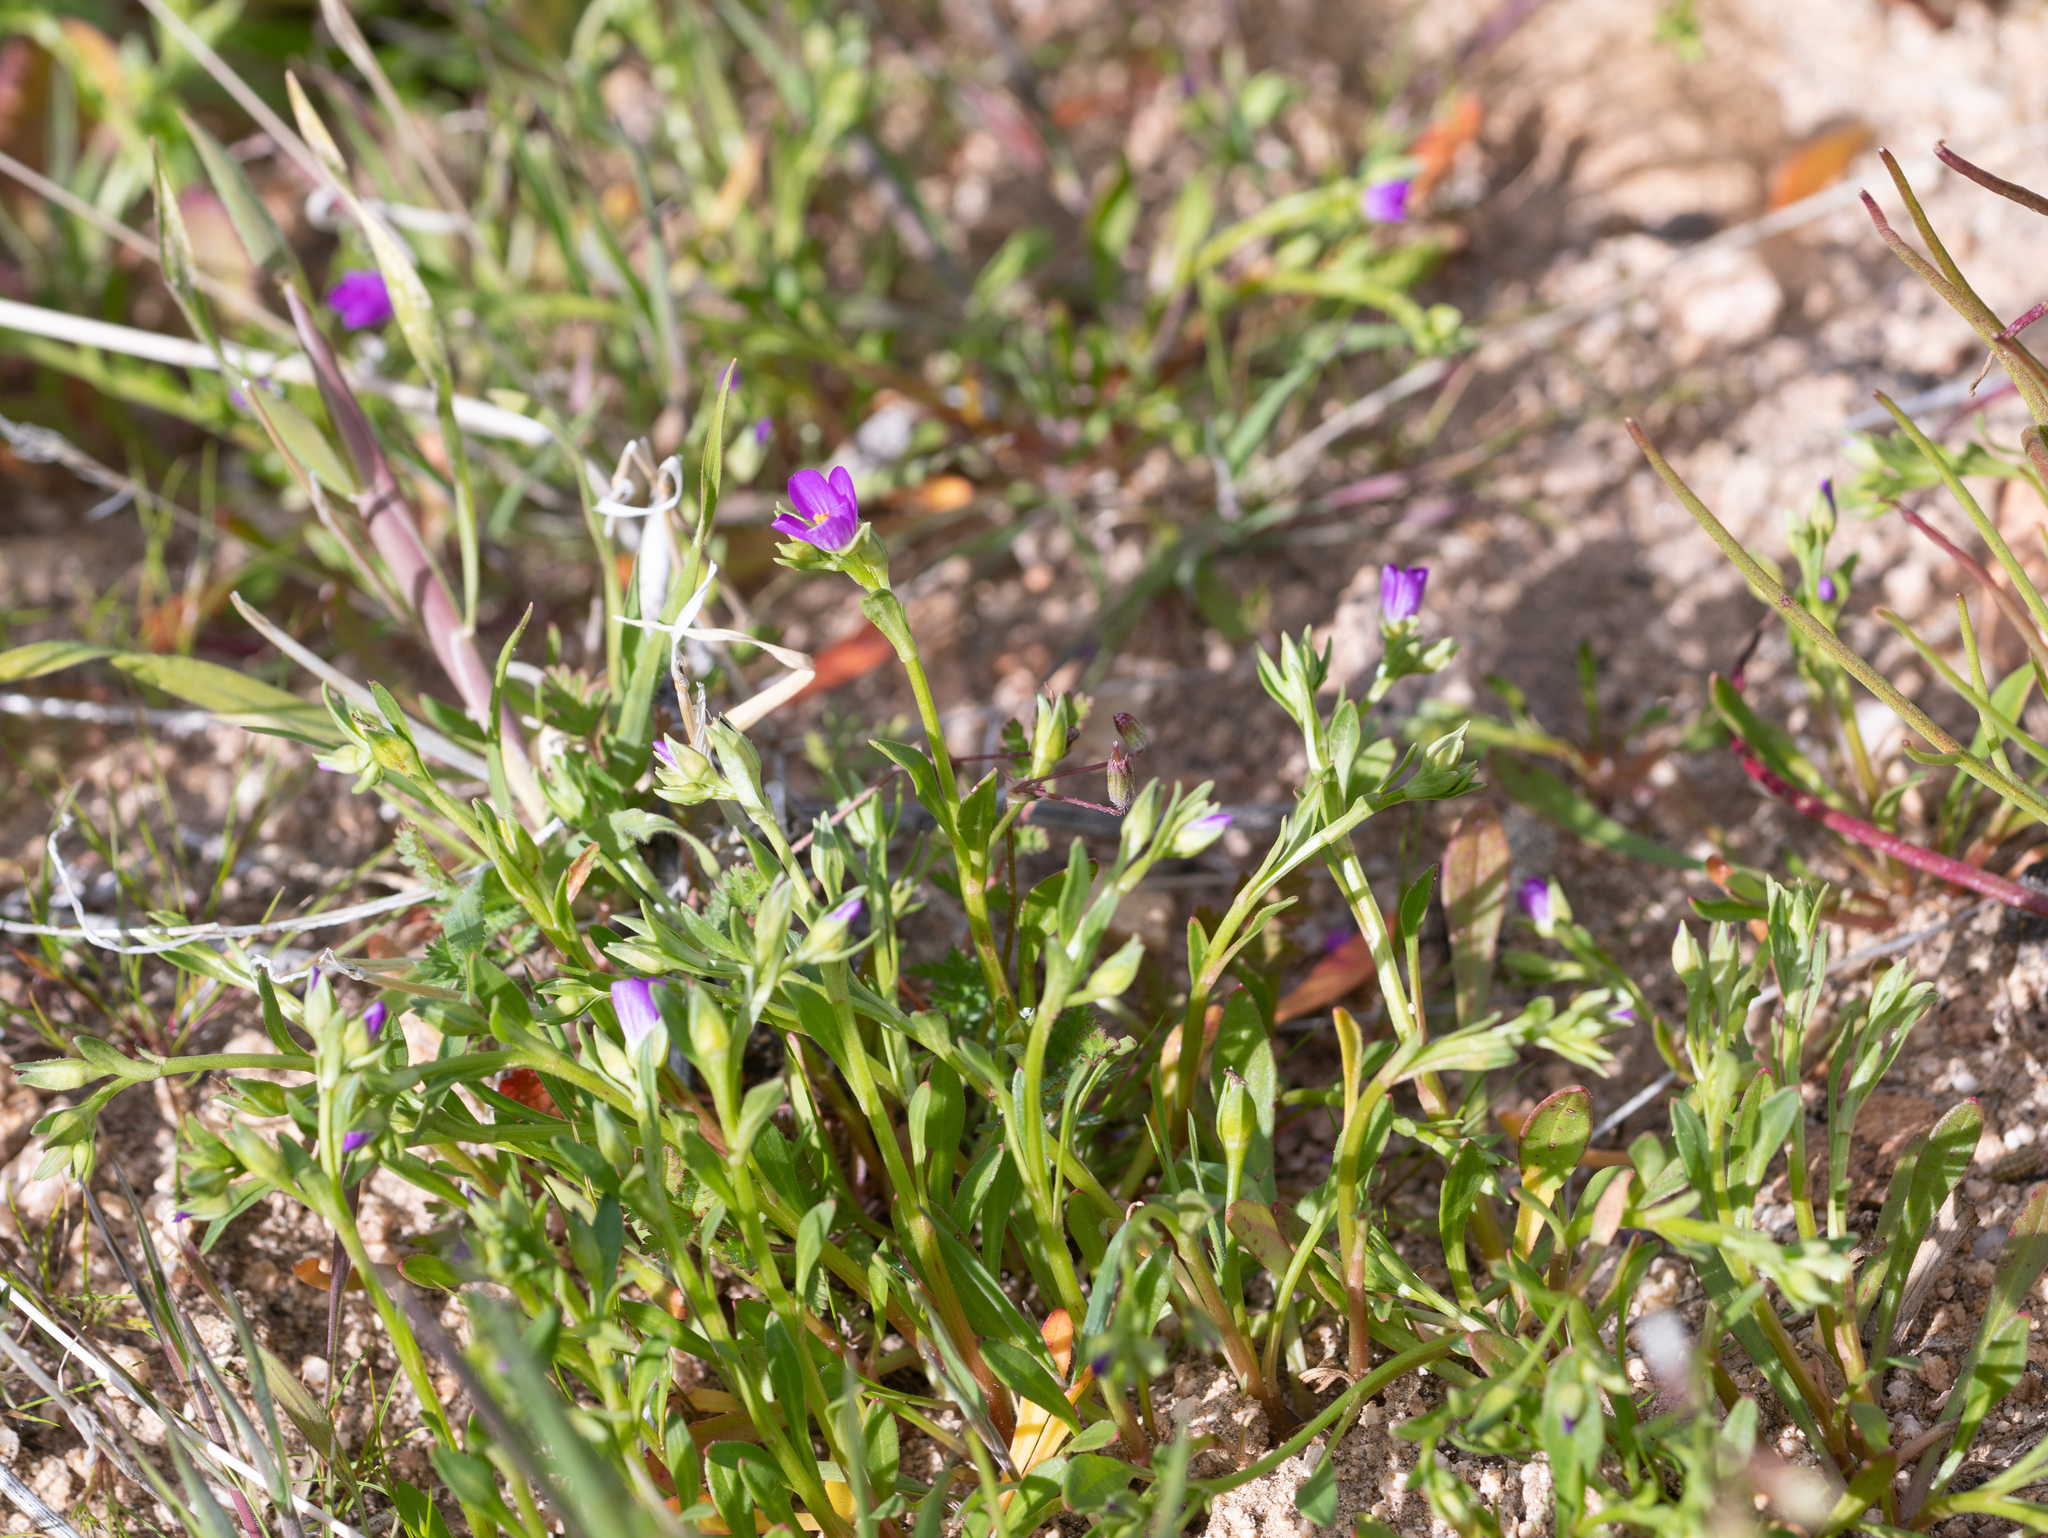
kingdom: Plantae
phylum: Tracheophyta
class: Magnoliopsida
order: Caryophyllales
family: Montiaceae
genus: Calandrinia
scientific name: Calandrinia menziesii
